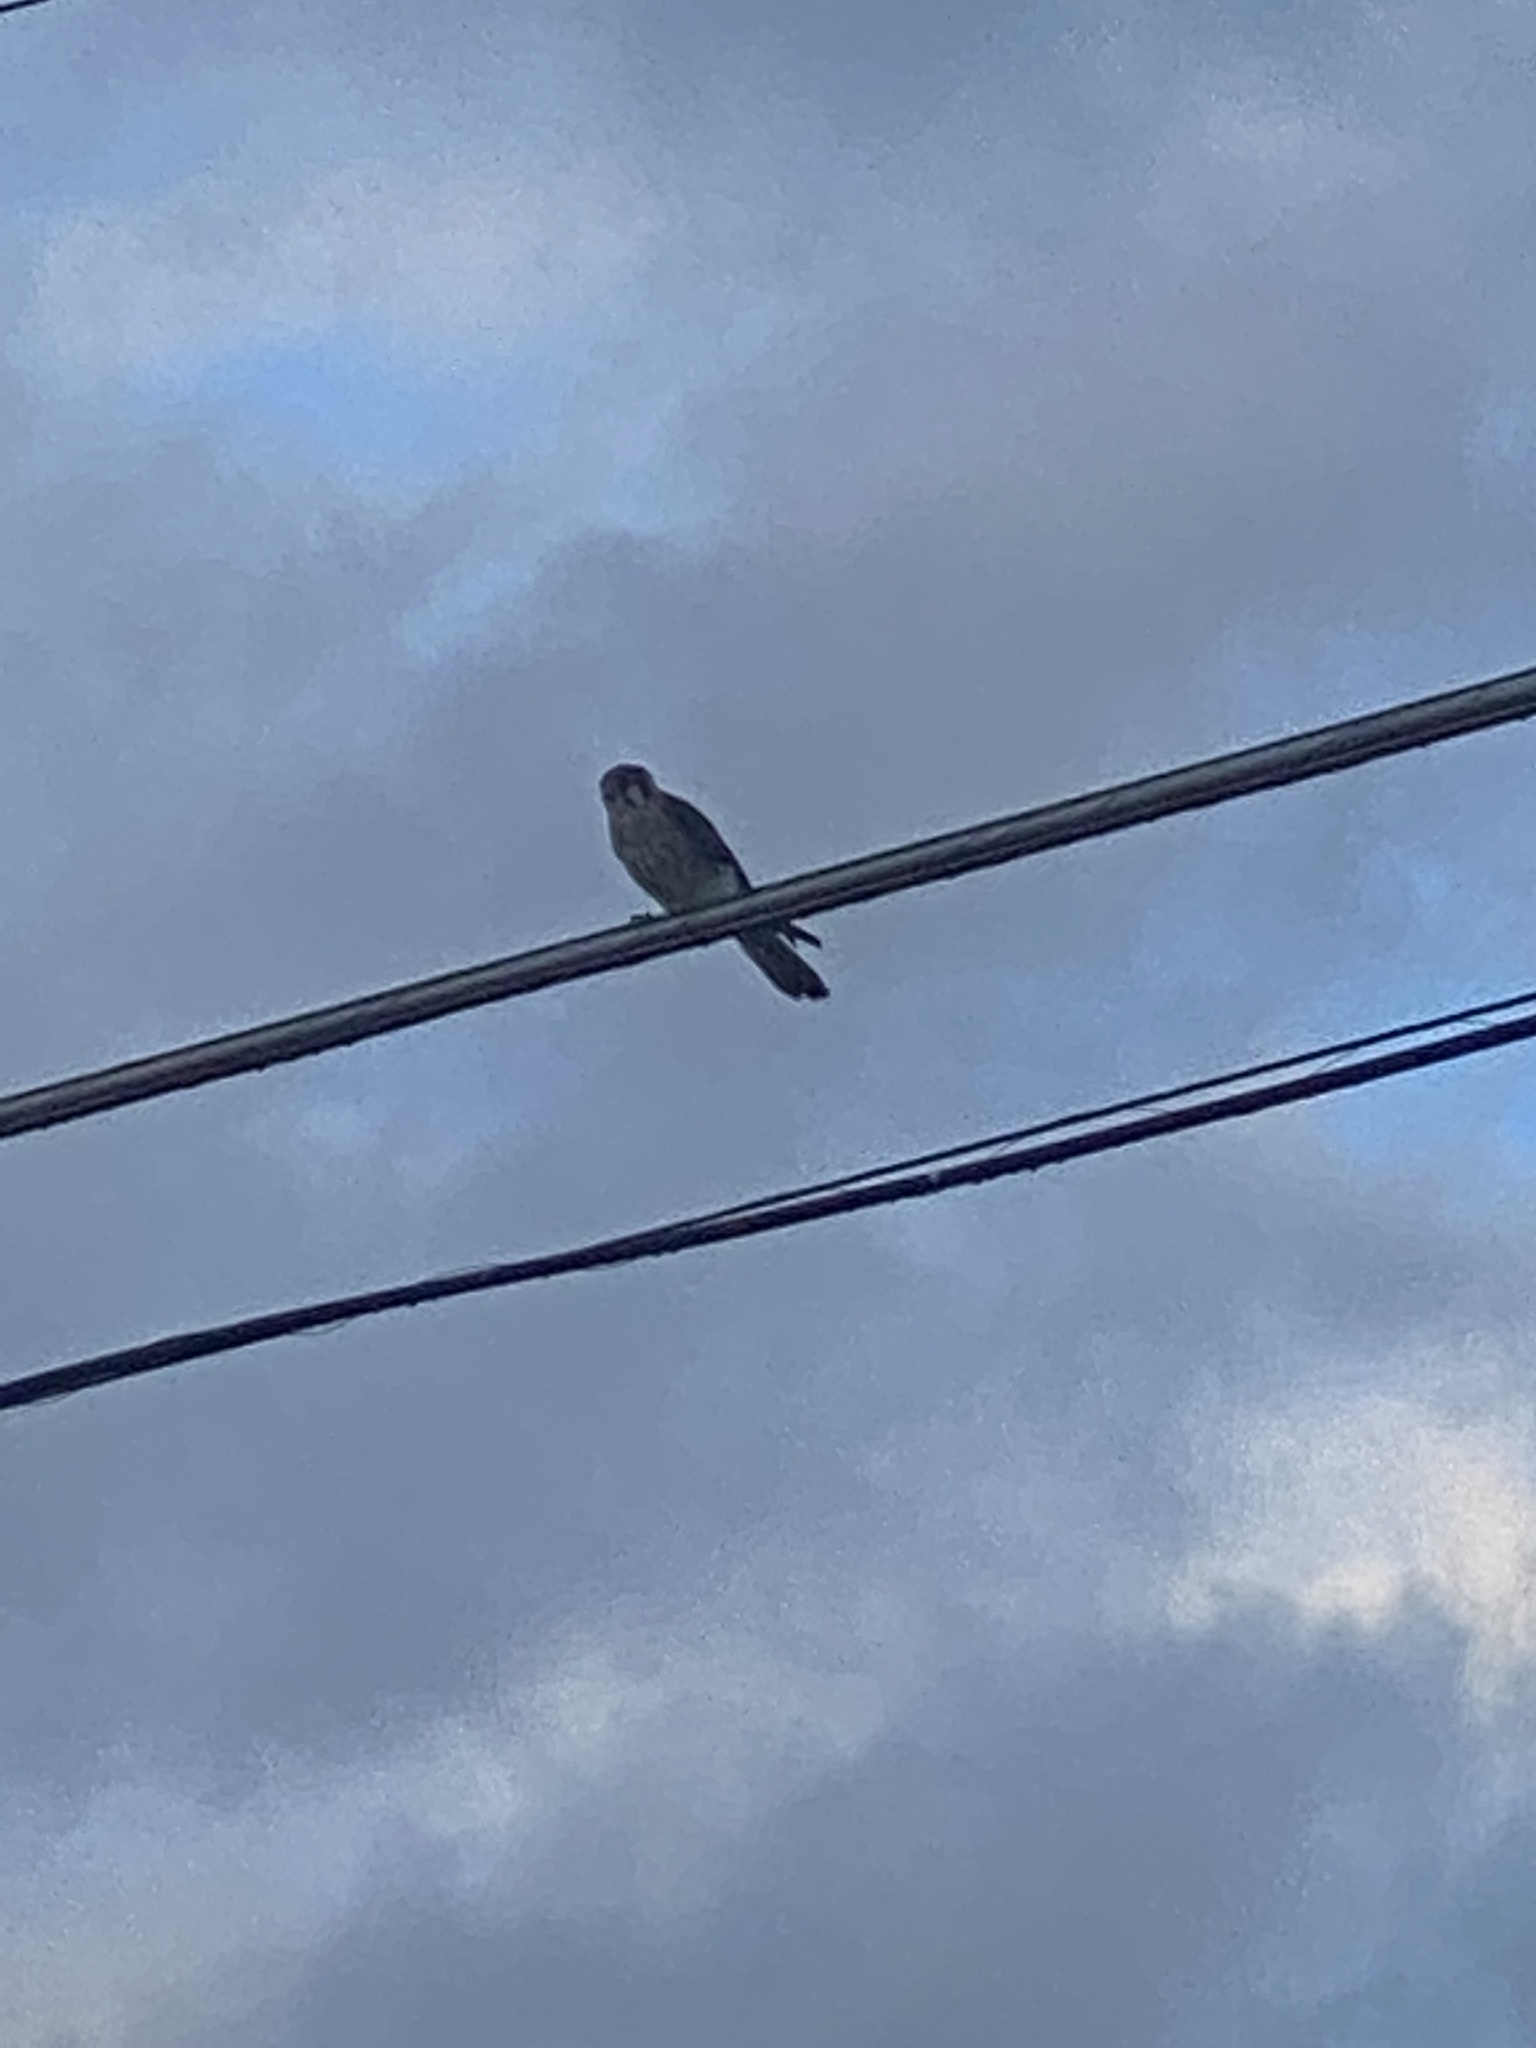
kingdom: Animalia
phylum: Chordata
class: Aves
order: Falconiformes
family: Falconidae
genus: Falco
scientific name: Falco sparverius
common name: American kestrel
